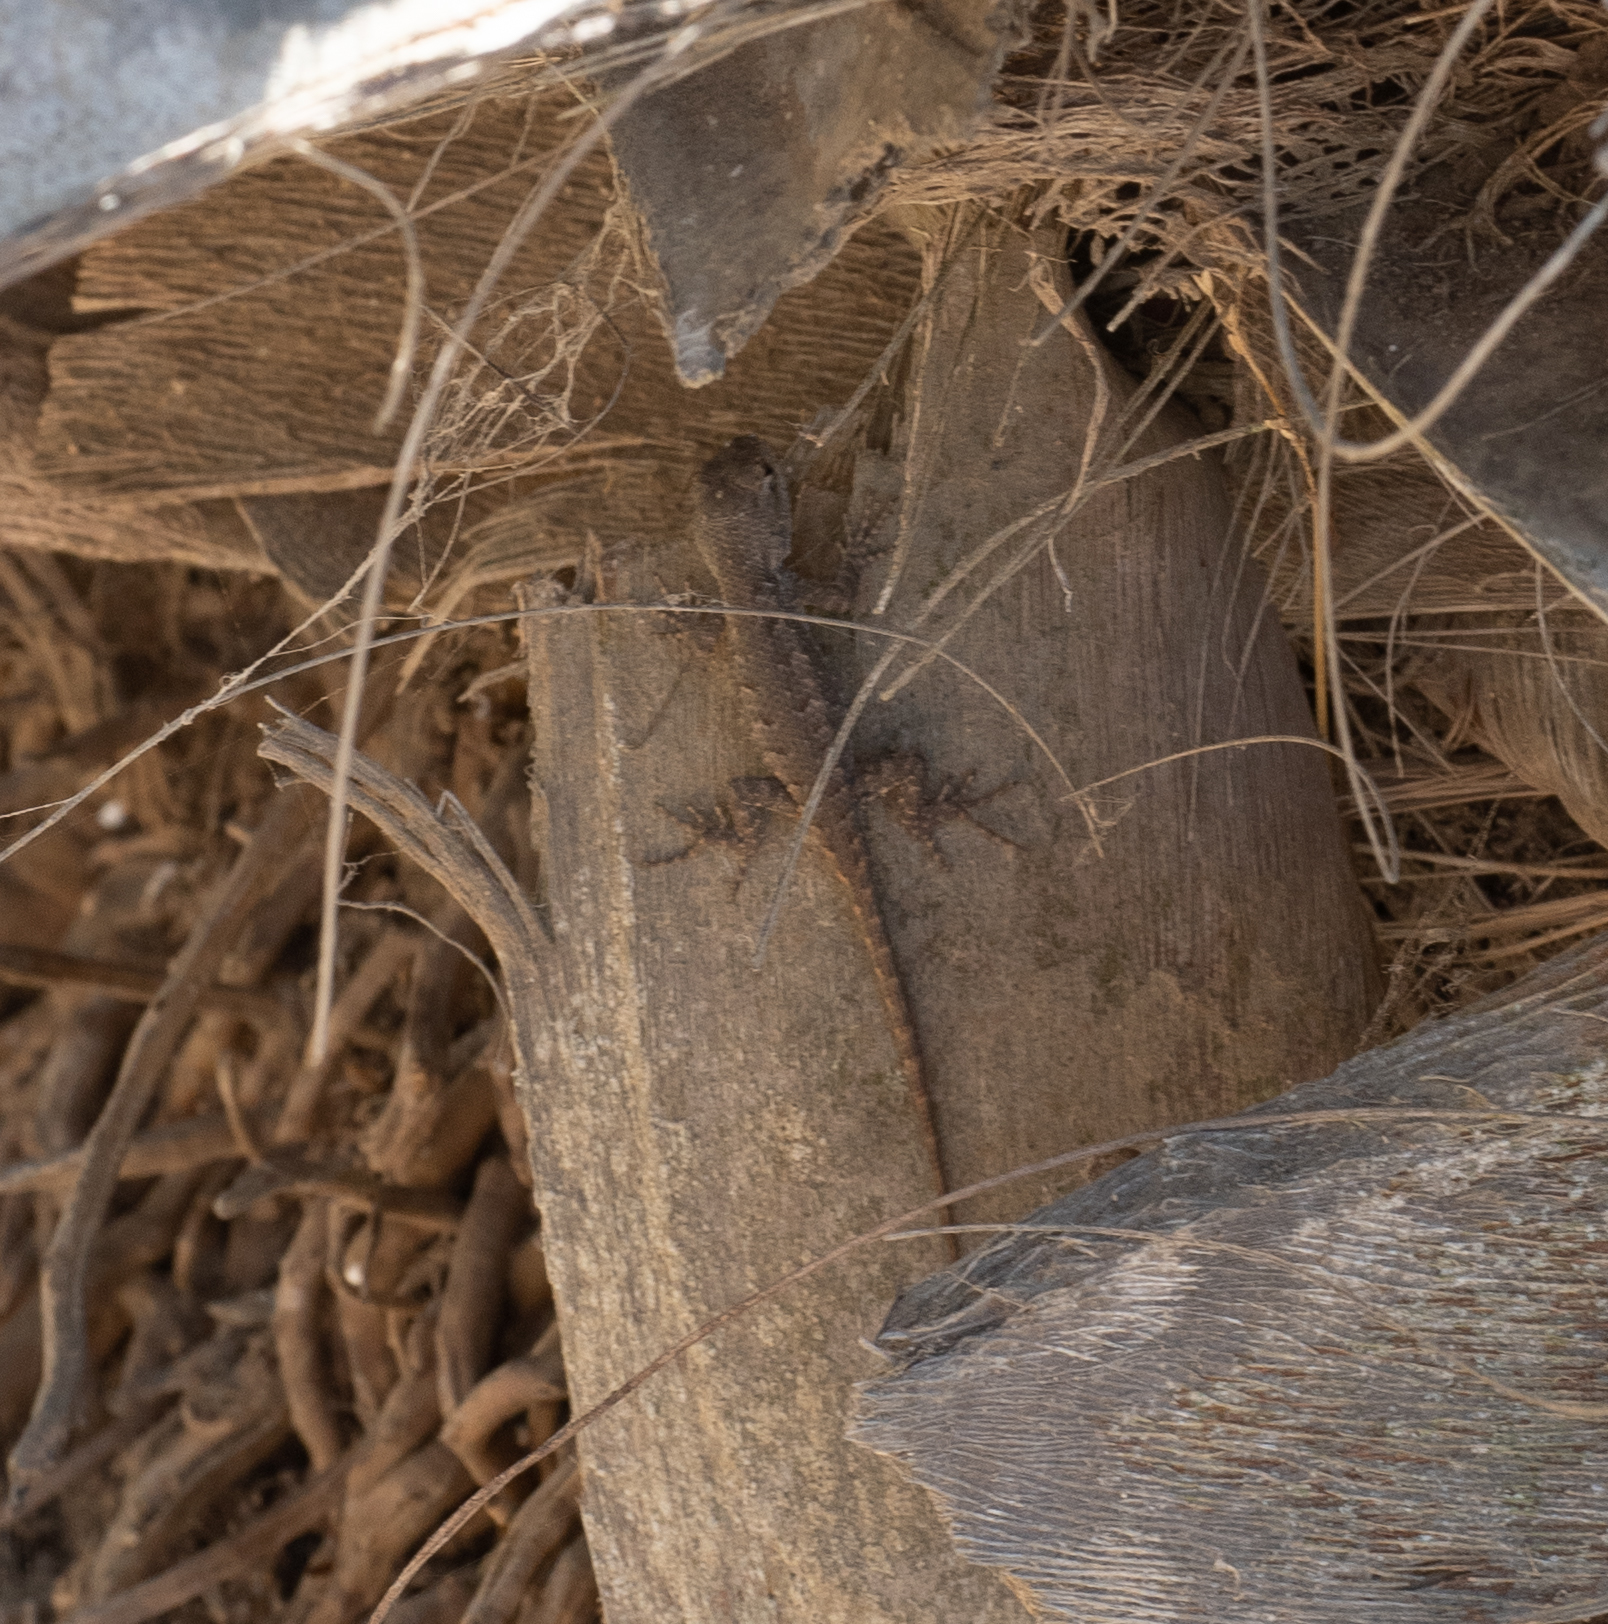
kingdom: Animalia
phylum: Chordata
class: Squamata
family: Phrynosomatidae
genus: Sceloporus
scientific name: Sceloporus occidentalis
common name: Western fence lizard
